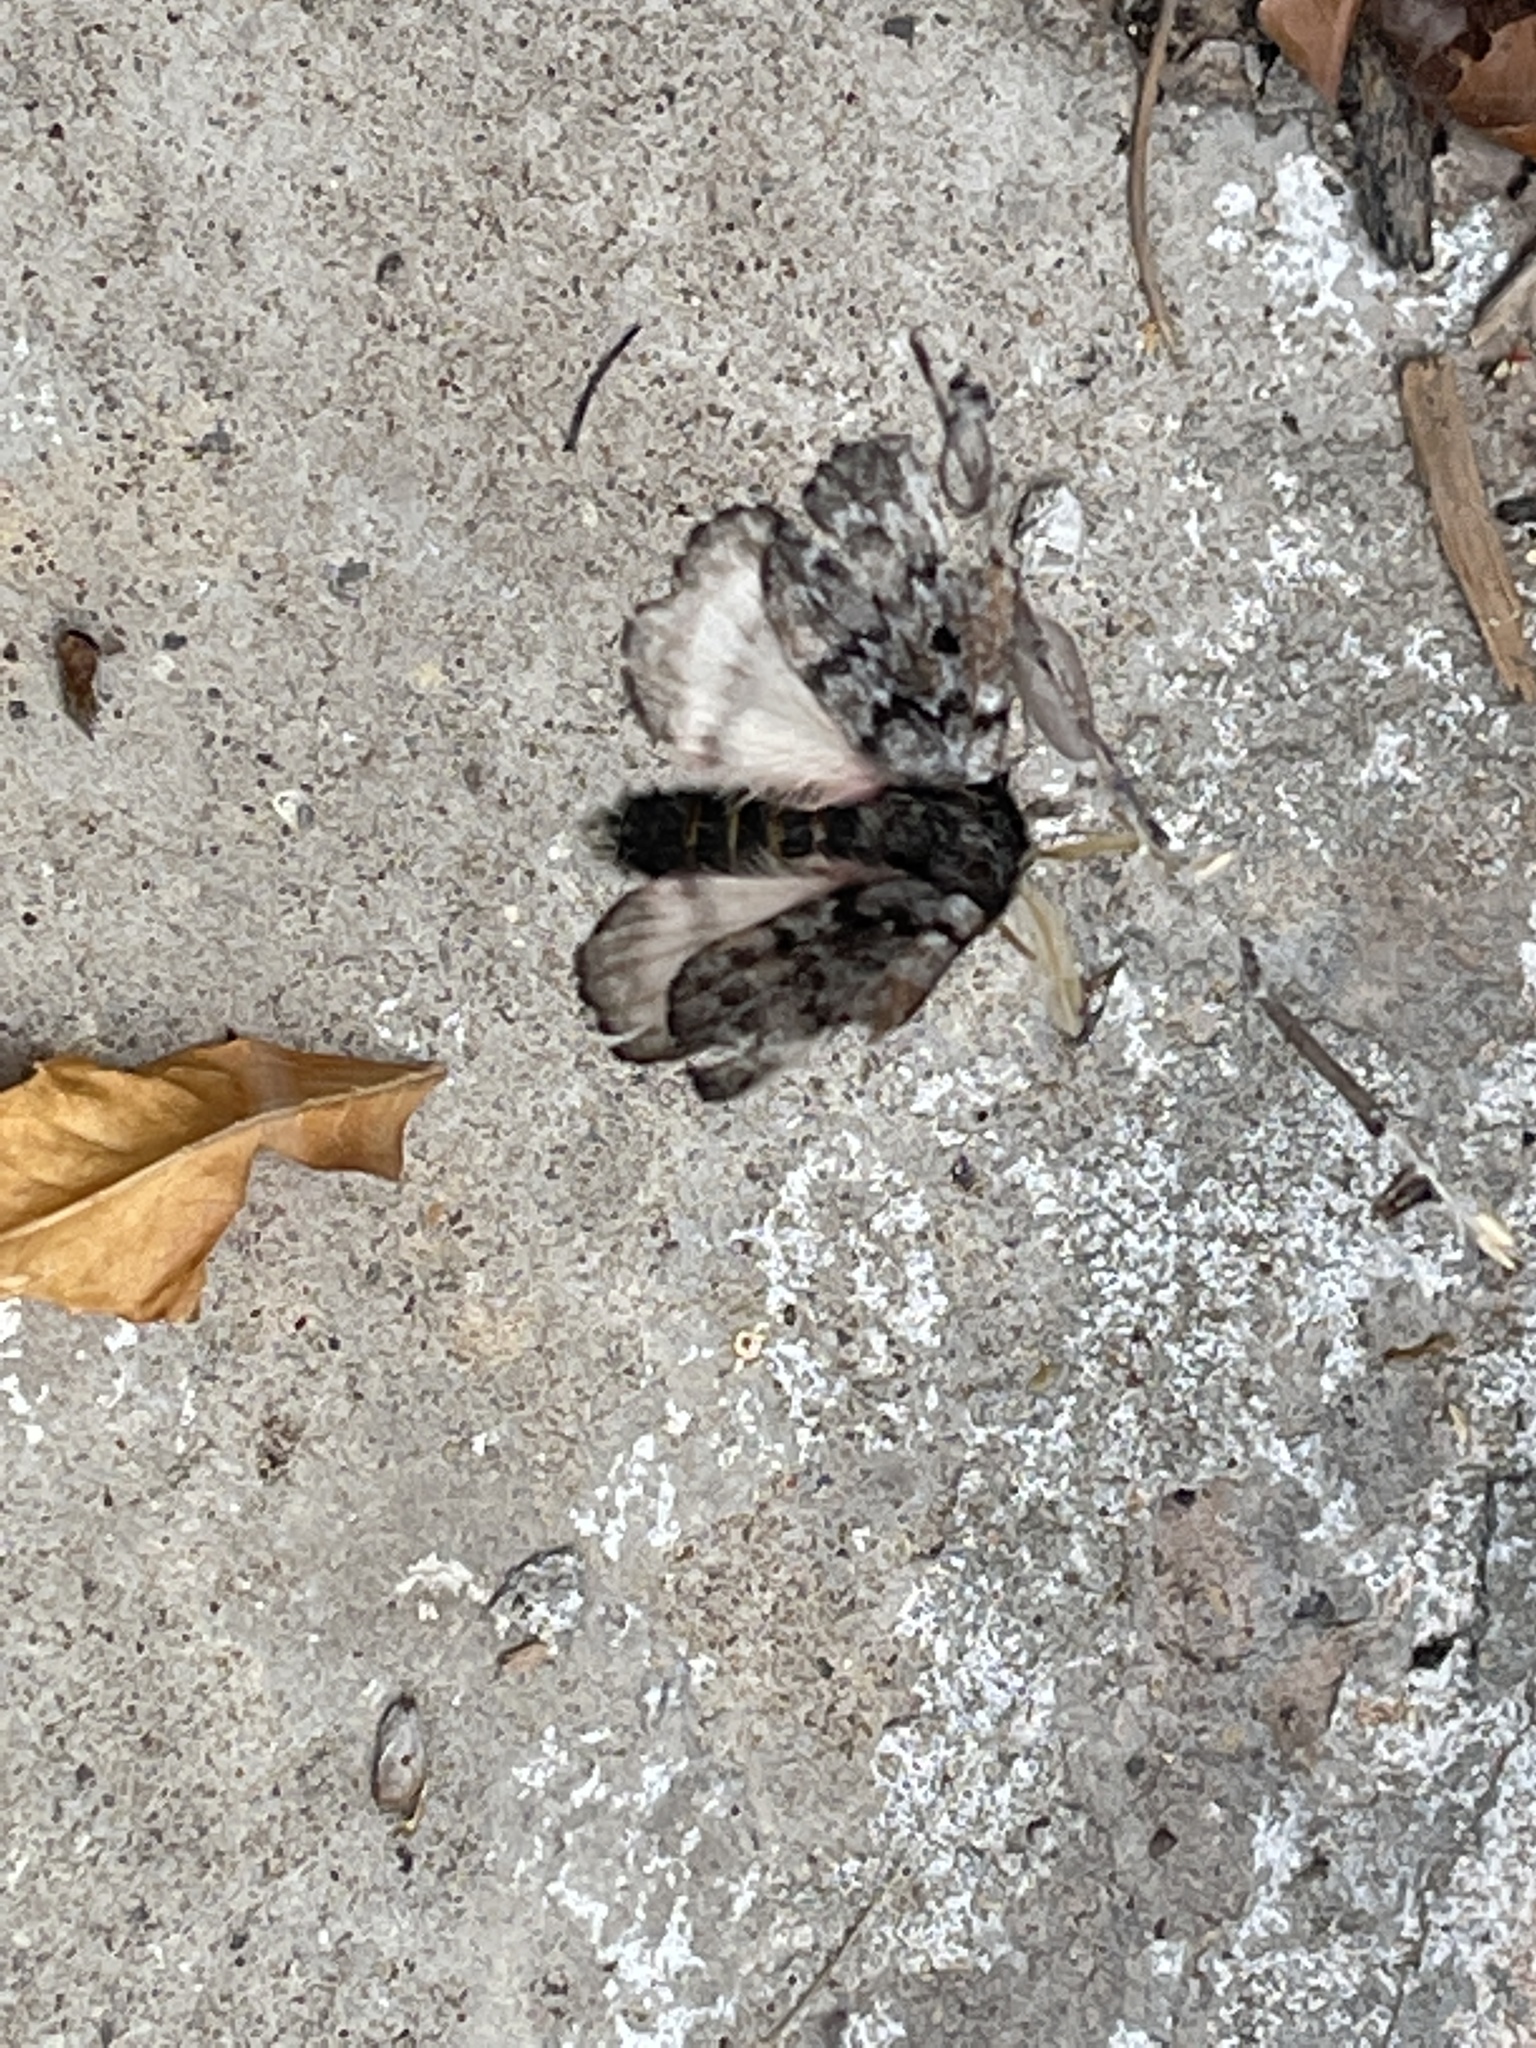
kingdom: Animalia
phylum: Arthropoda
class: Insecta
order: Lepidoptera
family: Saturniidae
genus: Coloradia
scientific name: Coloradia pandora
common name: Pandora pinemoth
